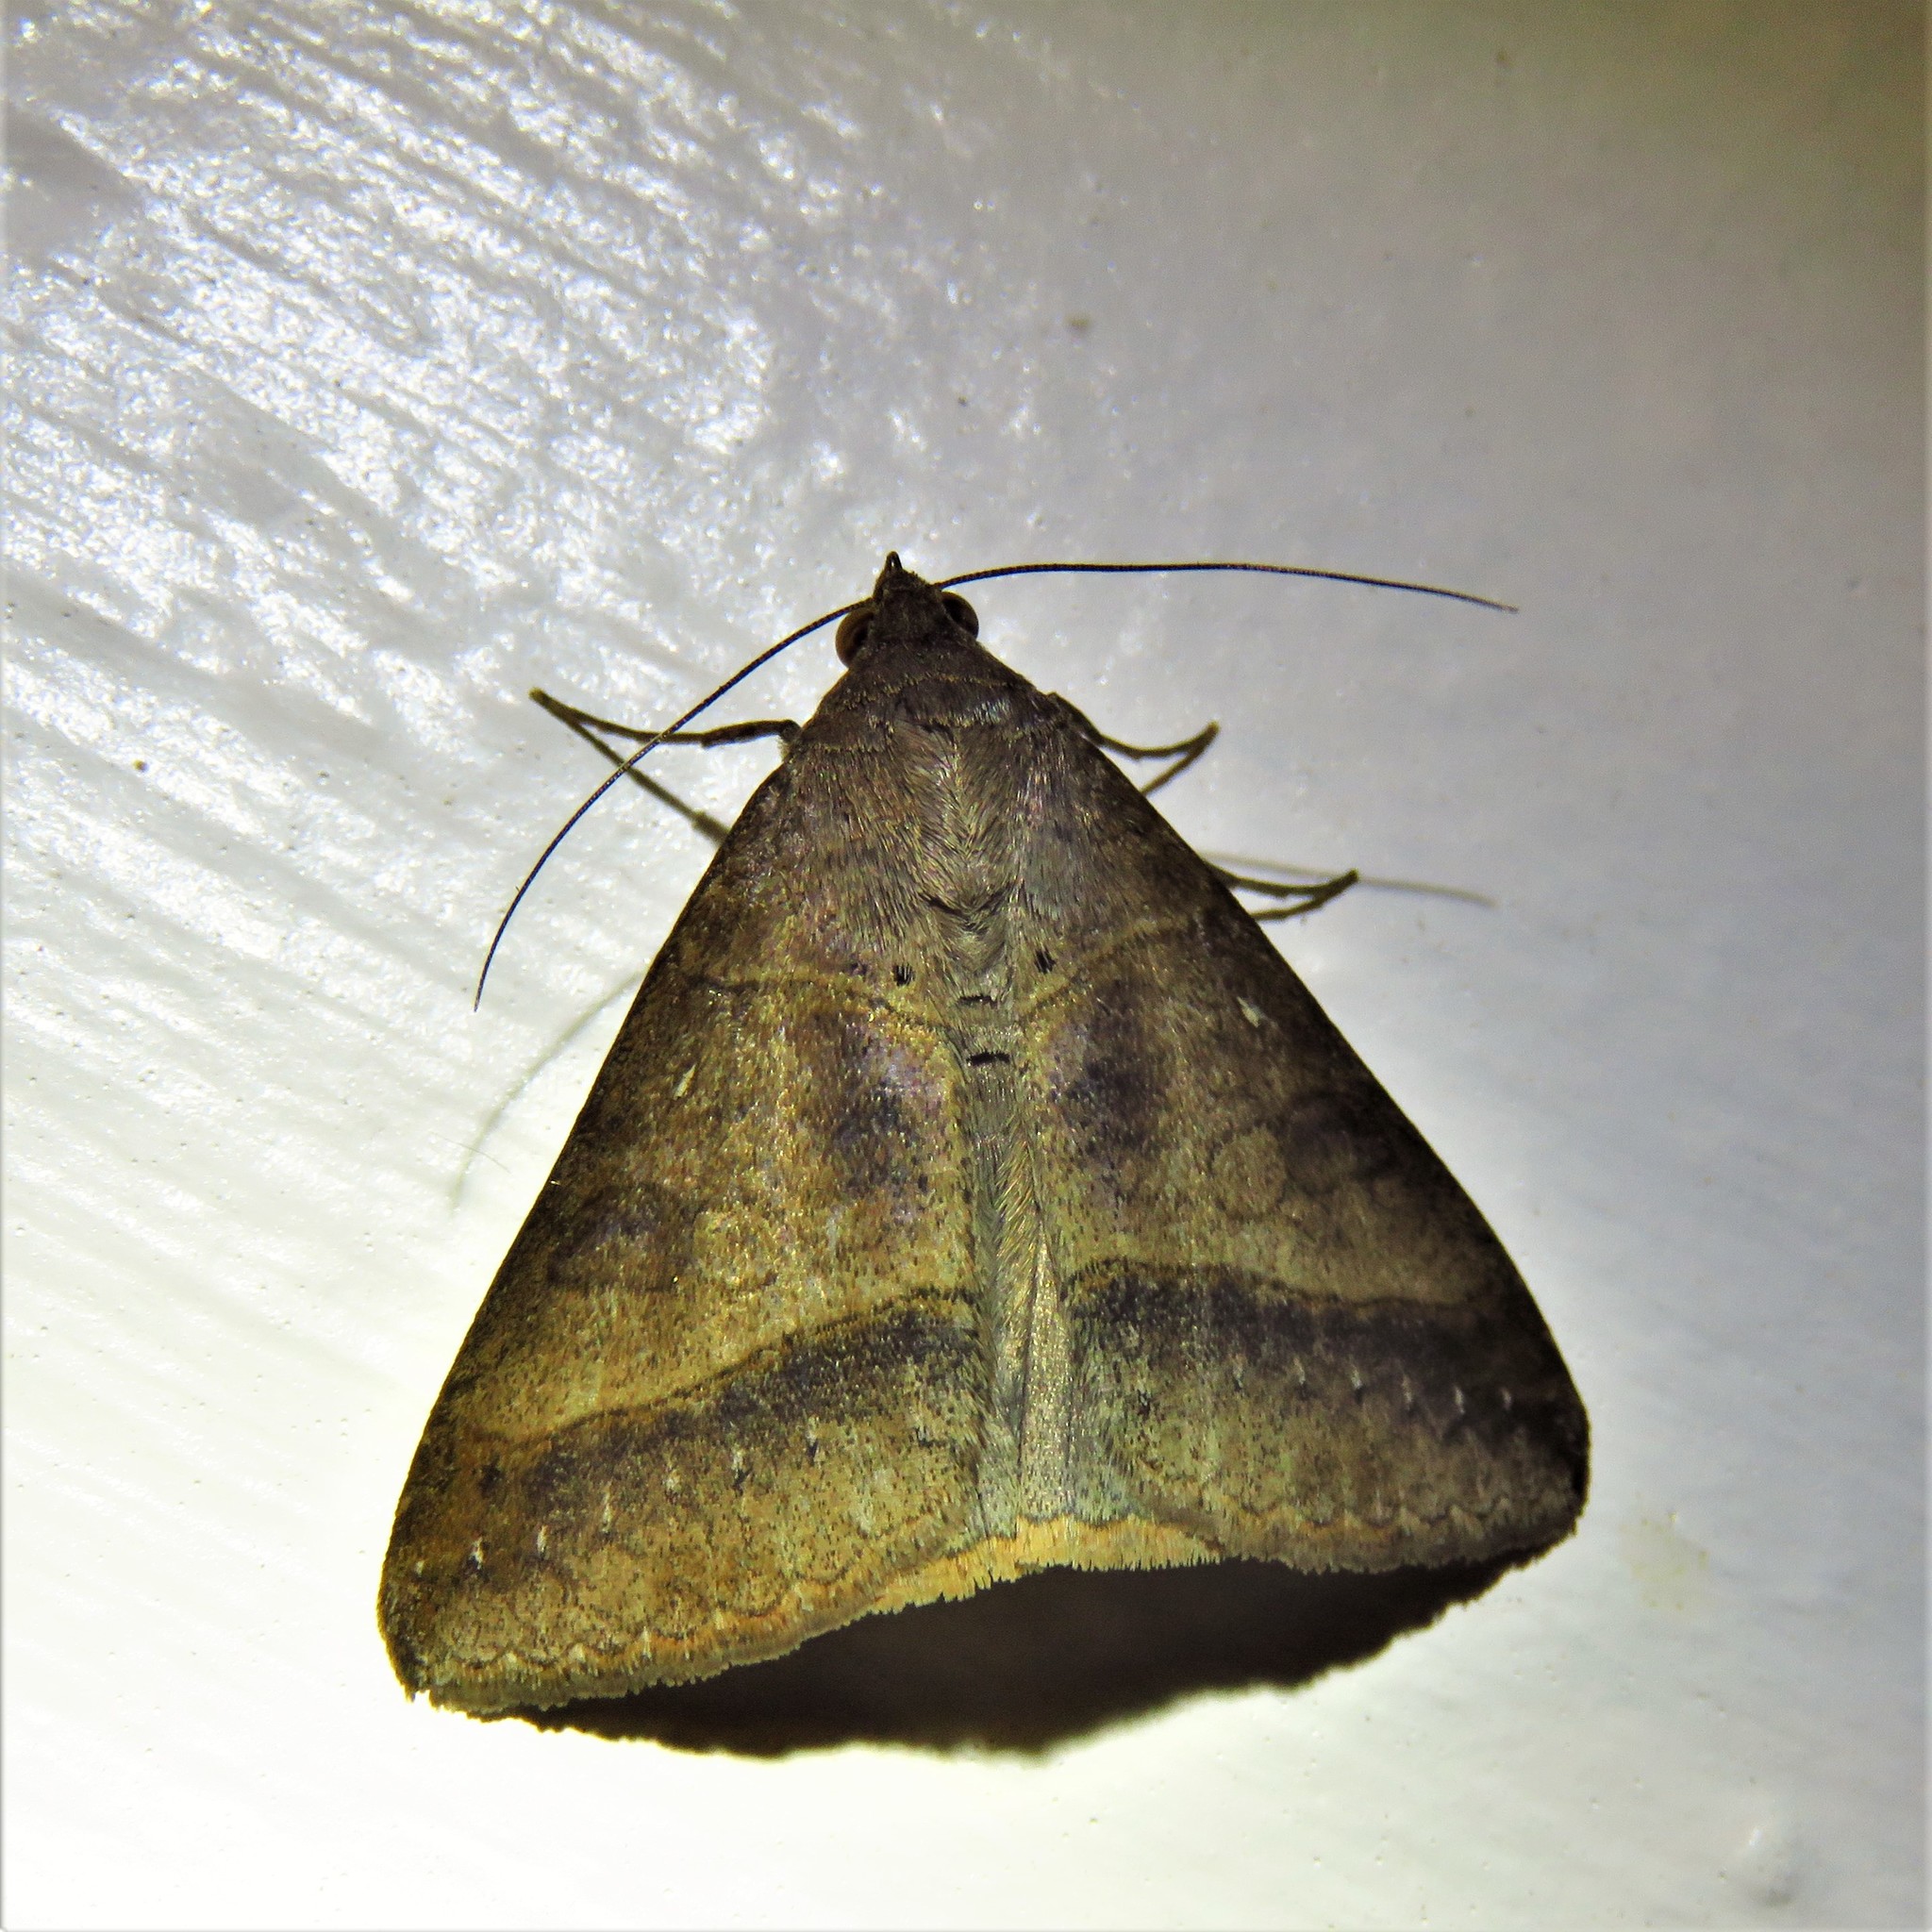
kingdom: Animalia
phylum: Arthropoda
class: Insecta
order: Lepidoptera
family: Erebidae
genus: Mocis
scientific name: Mocis texana
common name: Texas mocis moth
